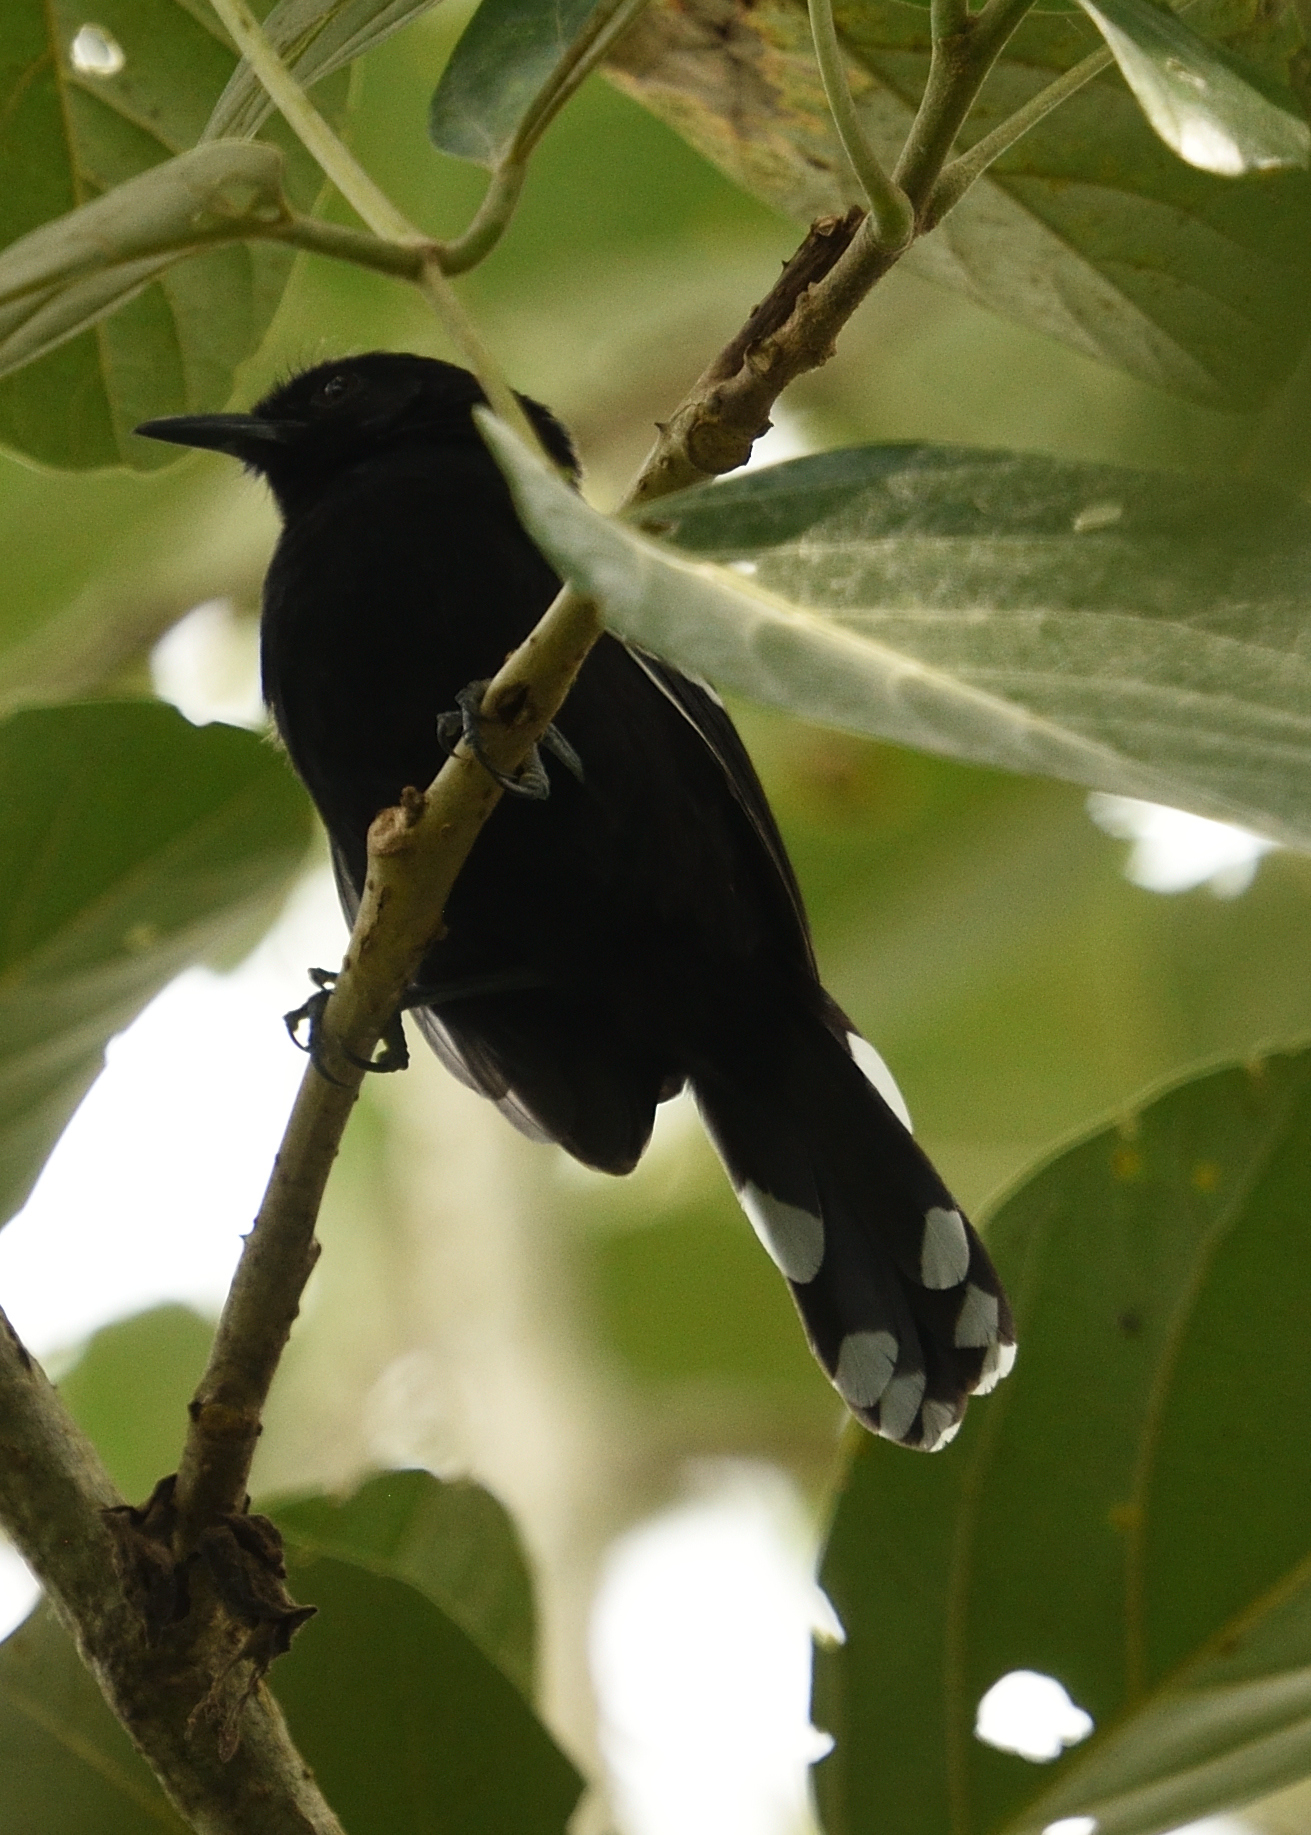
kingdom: Animalia
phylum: Chordata
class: Aves
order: Passeriformes
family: Thamnophilidae
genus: Cercomacra
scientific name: Cercomacra nigricans
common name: Jet antbird
